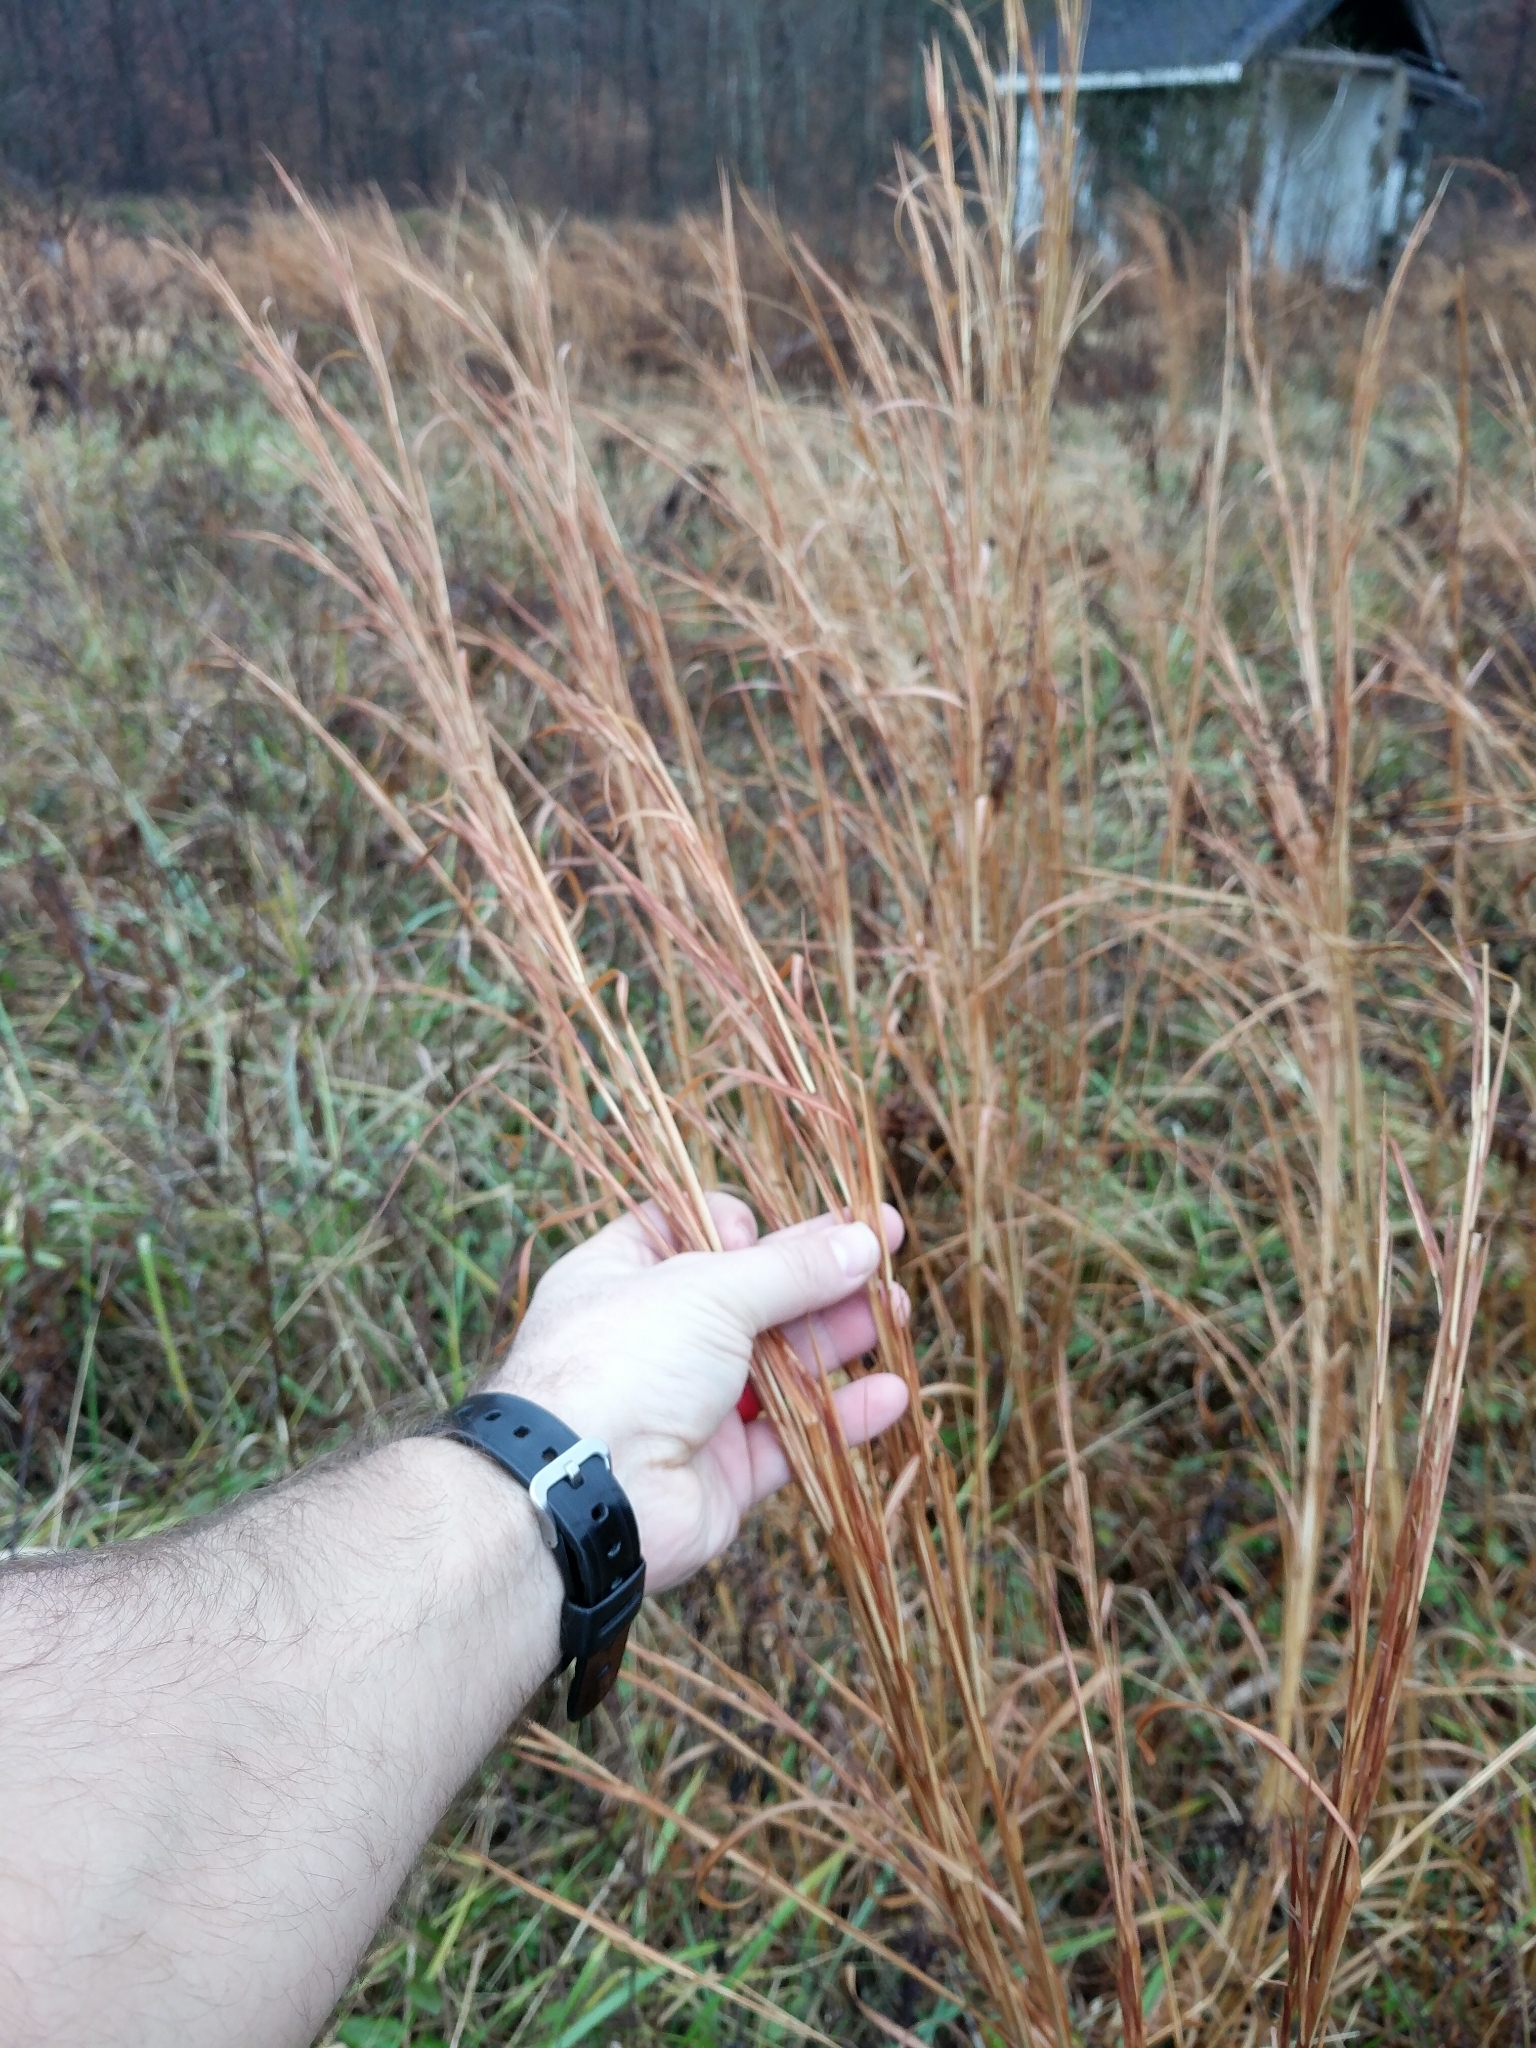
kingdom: Plantae
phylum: Tracheophyta
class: Liliopsida
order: Poales
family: Poaceae
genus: Andropogon
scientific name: Andropogon virginicus
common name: Broomsedge bluestem
